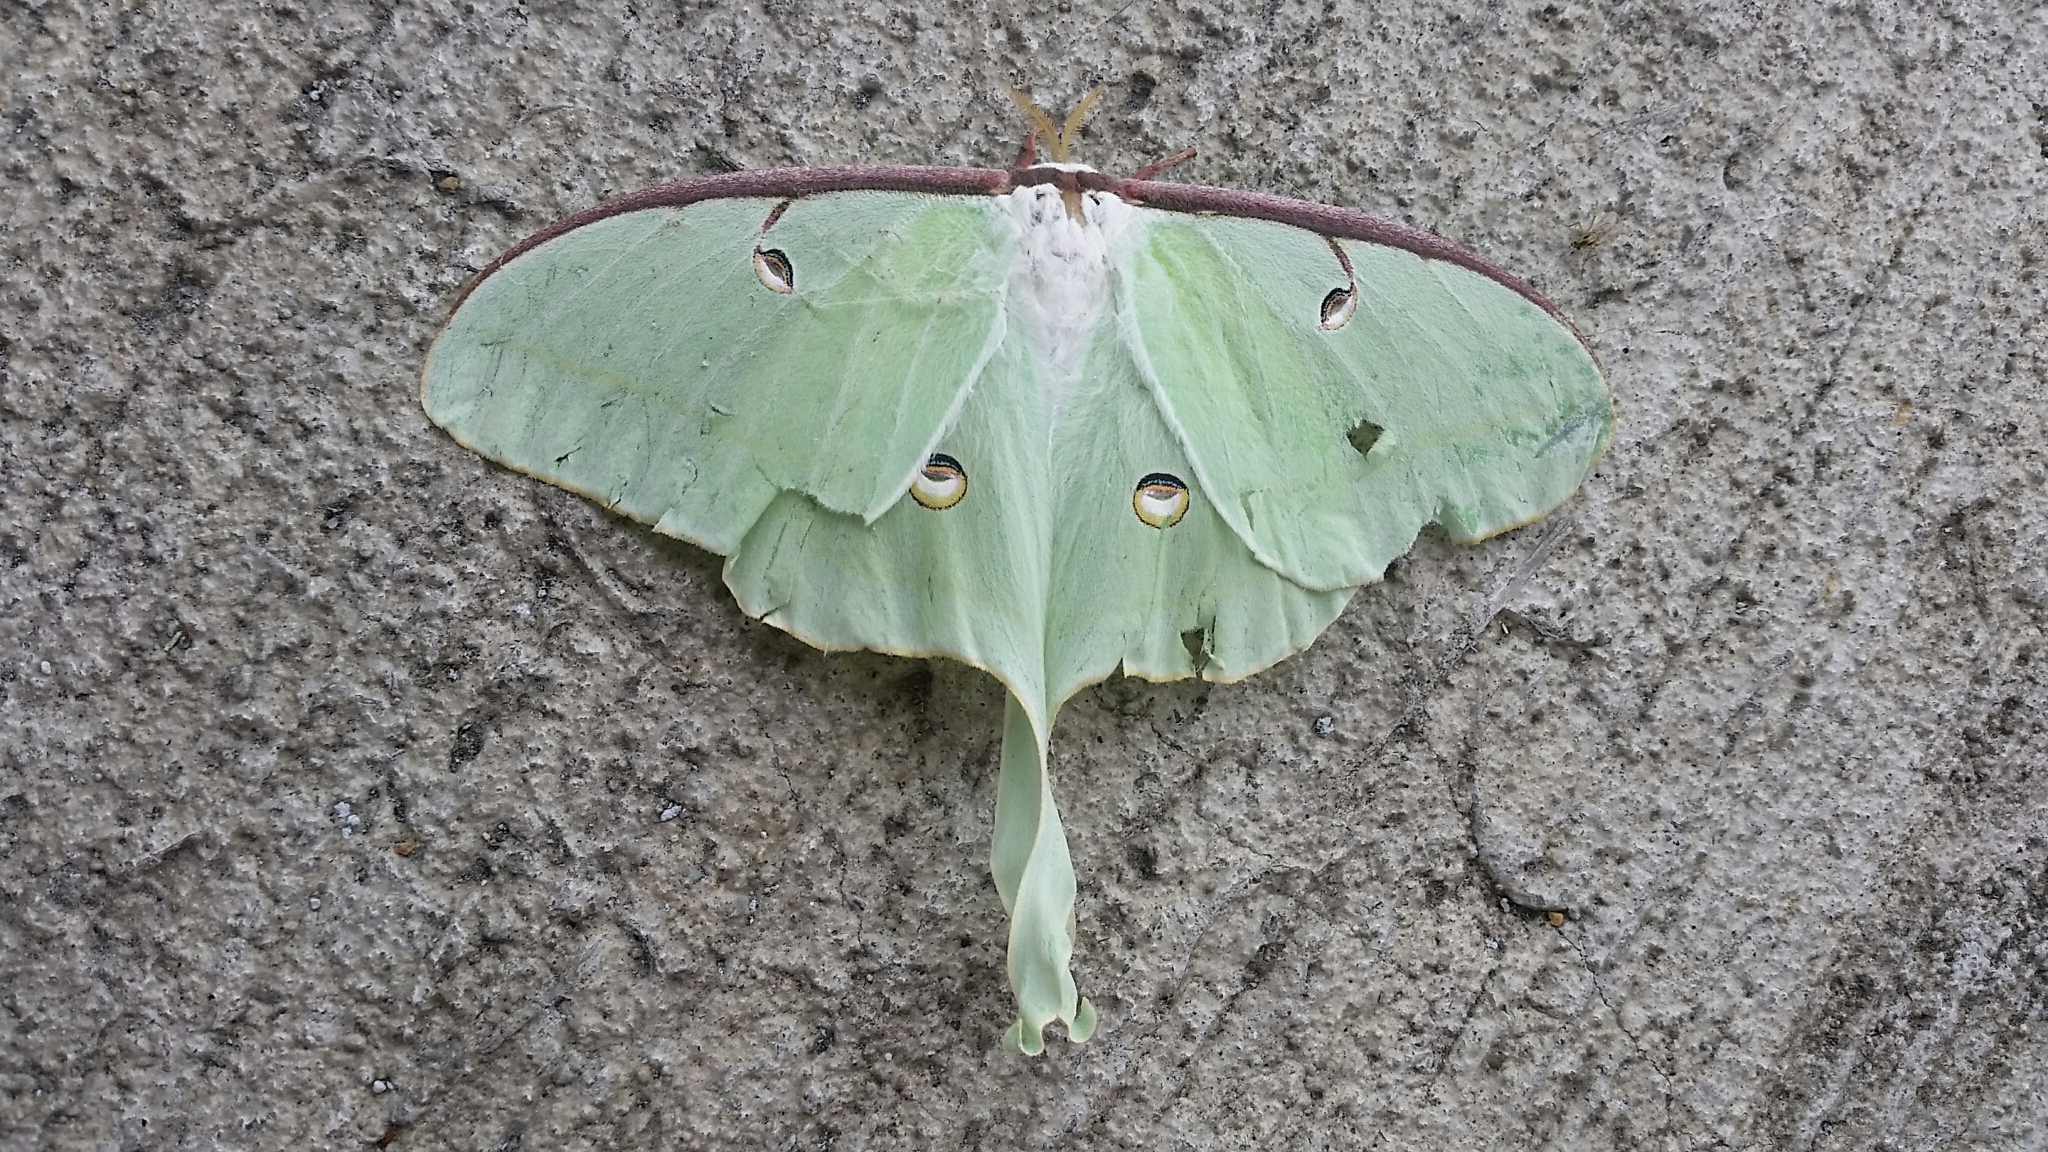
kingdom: Animalia
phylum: Arthropoda
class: Insecta
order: Lepidoptera
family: Saturniidae
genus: Actias
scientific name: Actias luna
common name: Luna moth
